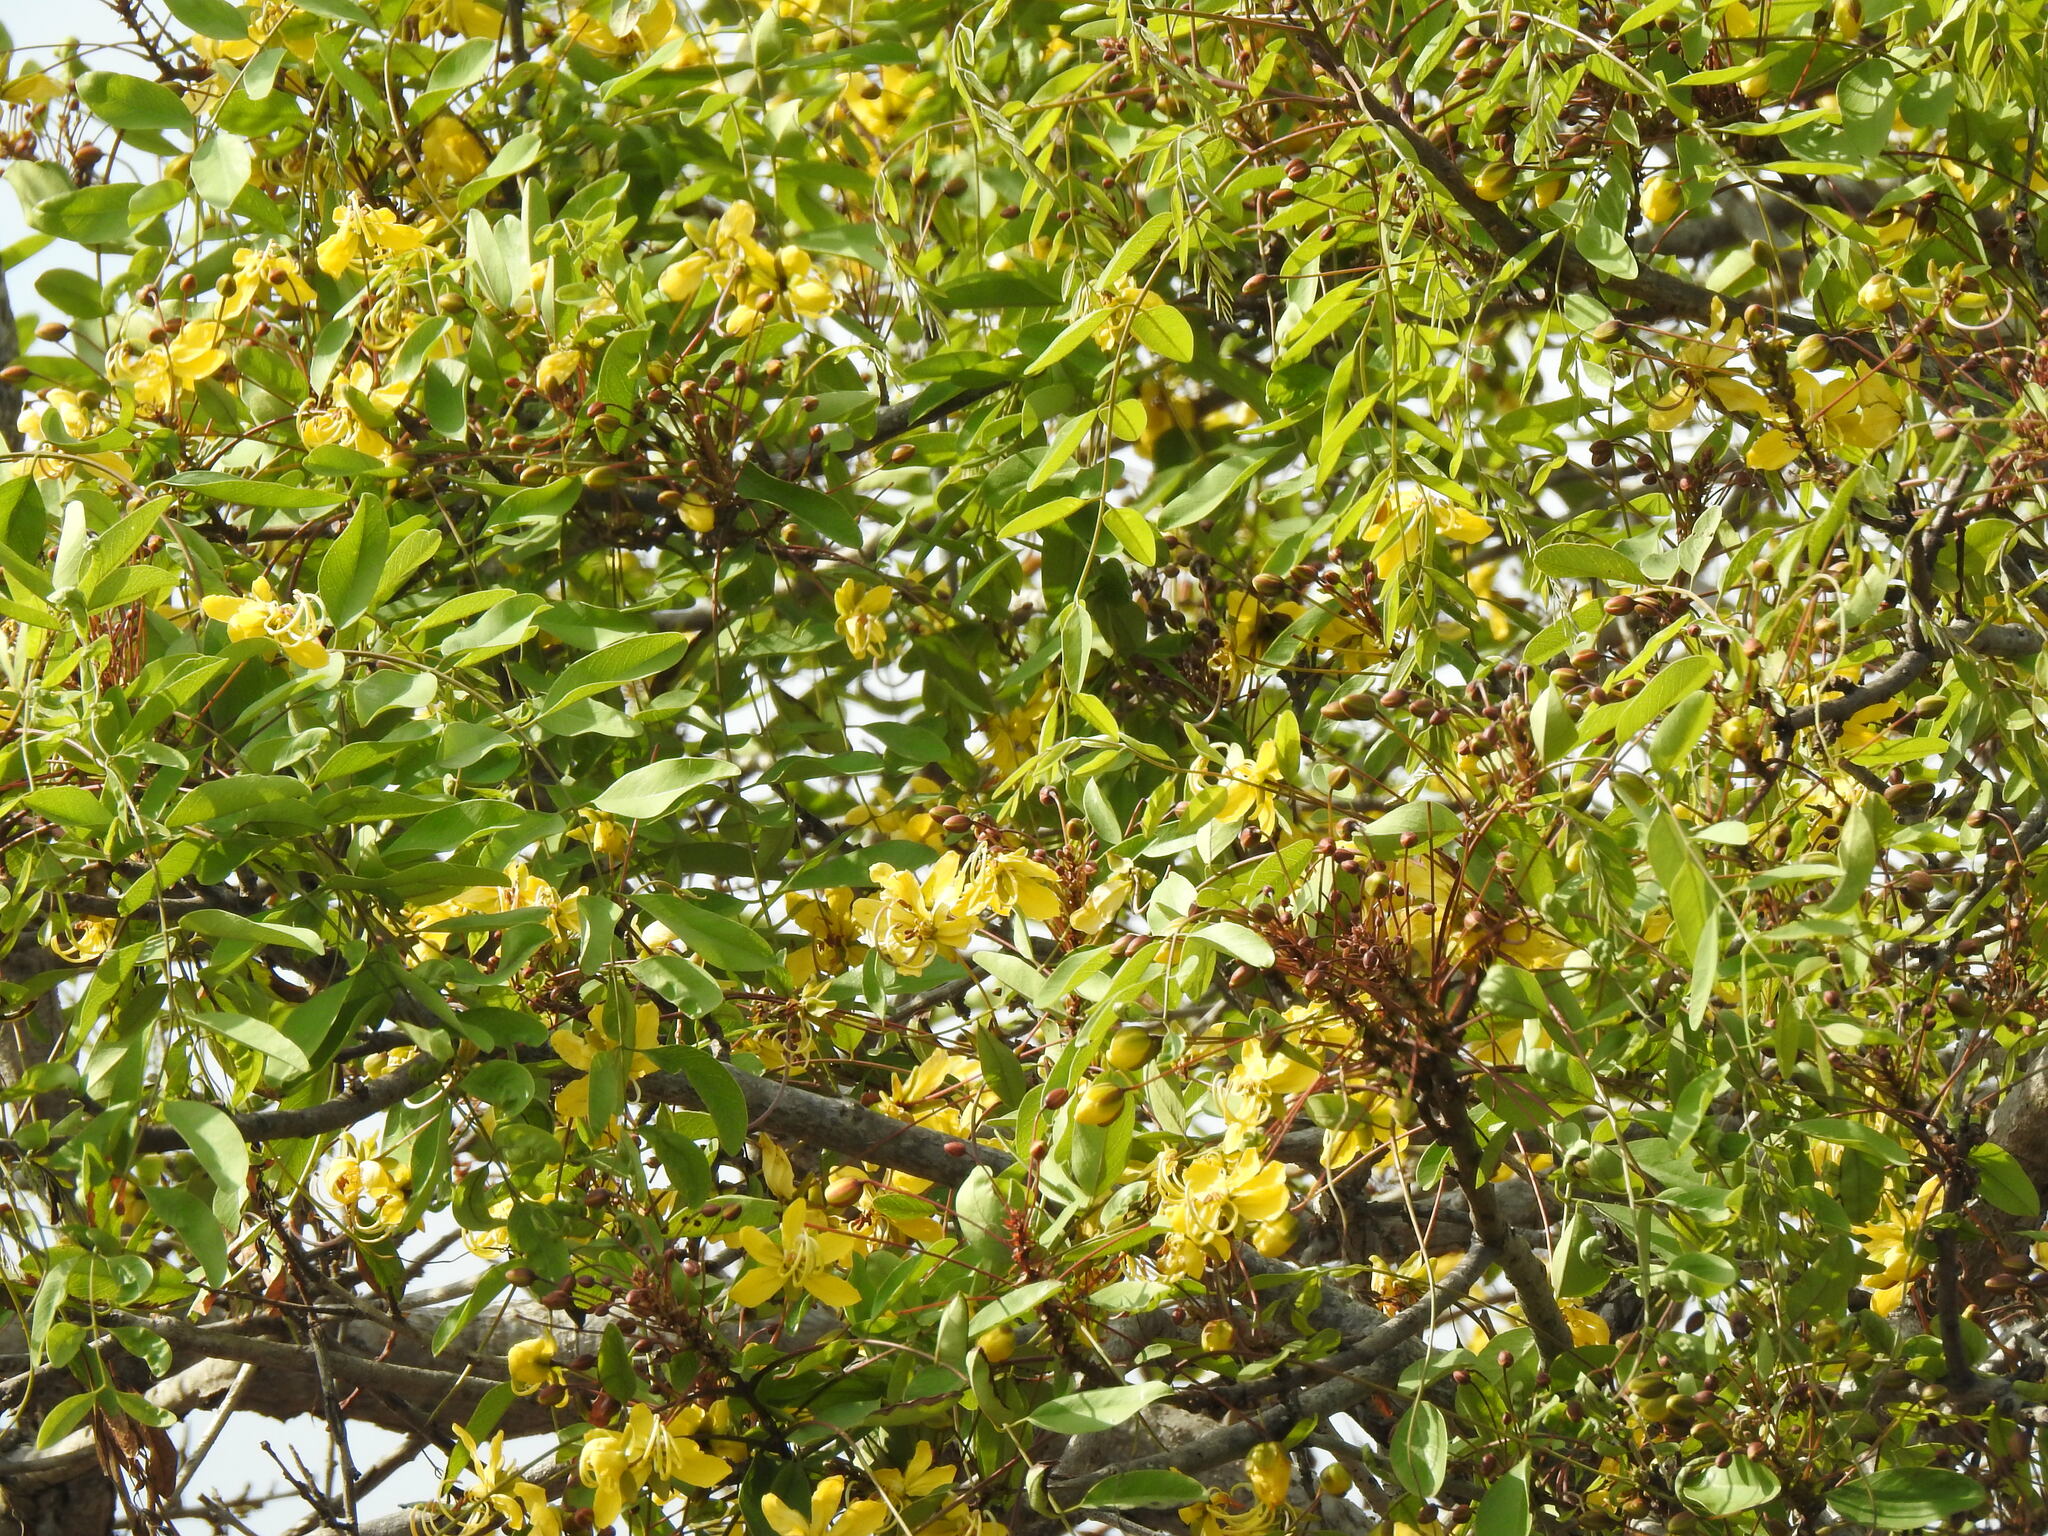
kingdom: Plantae
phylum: Tracheophyta
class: Magnoliopsida
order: Fabales
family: Fabaceae
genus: Cassia
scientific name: Cassia abbreviata
